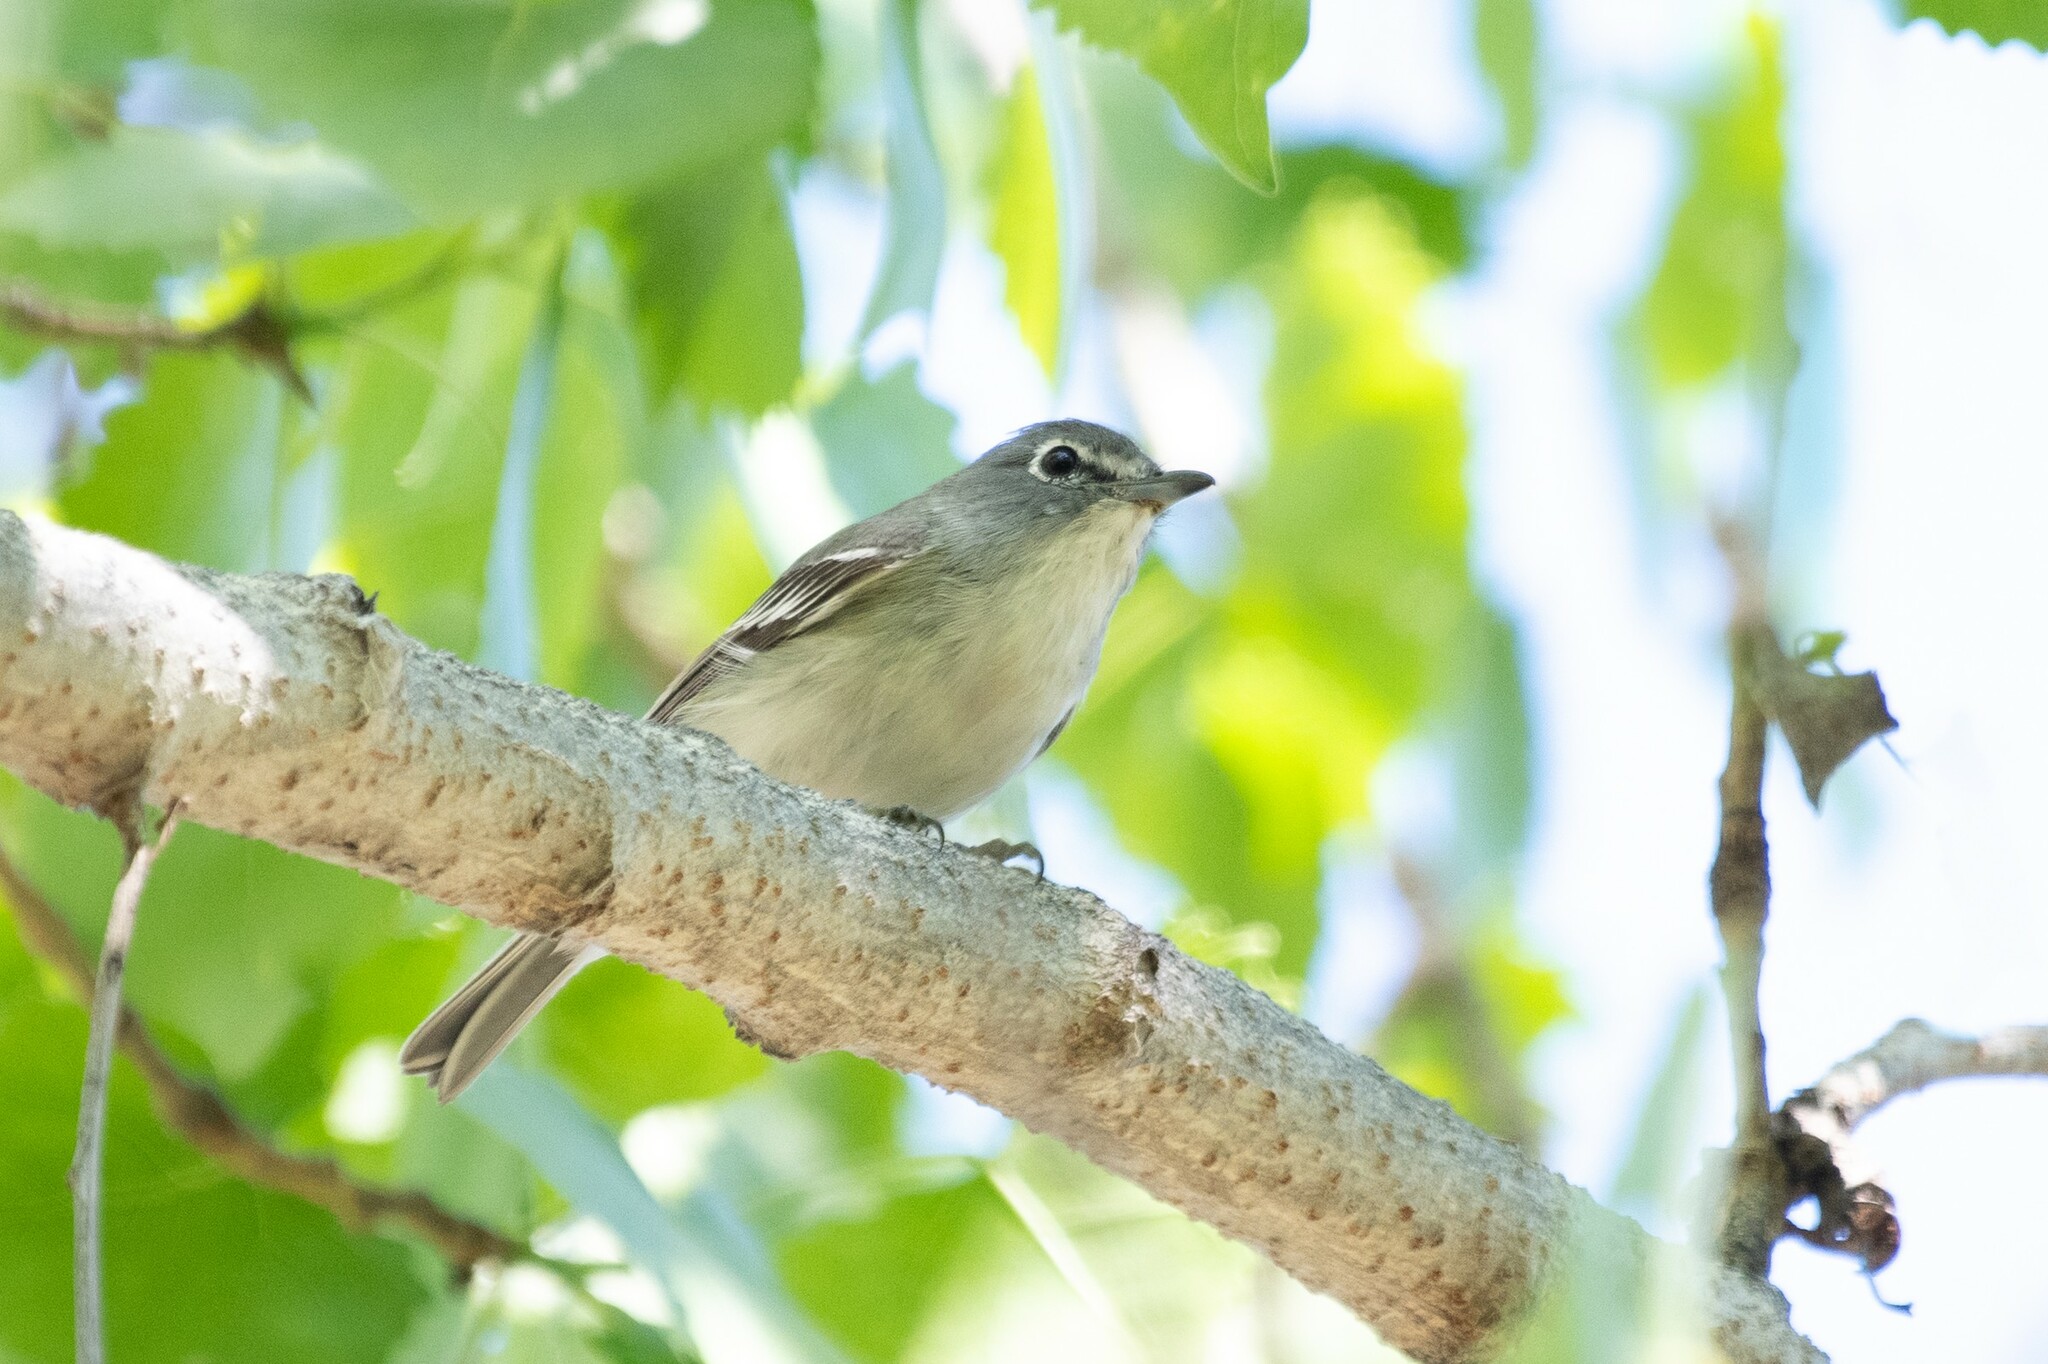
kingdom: Animalia
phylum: Chordata
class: Aves
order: Passeriformes
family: Vireonidae
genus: Vireo
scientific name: Vireo plumbeus
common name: Plumbeous vireo
